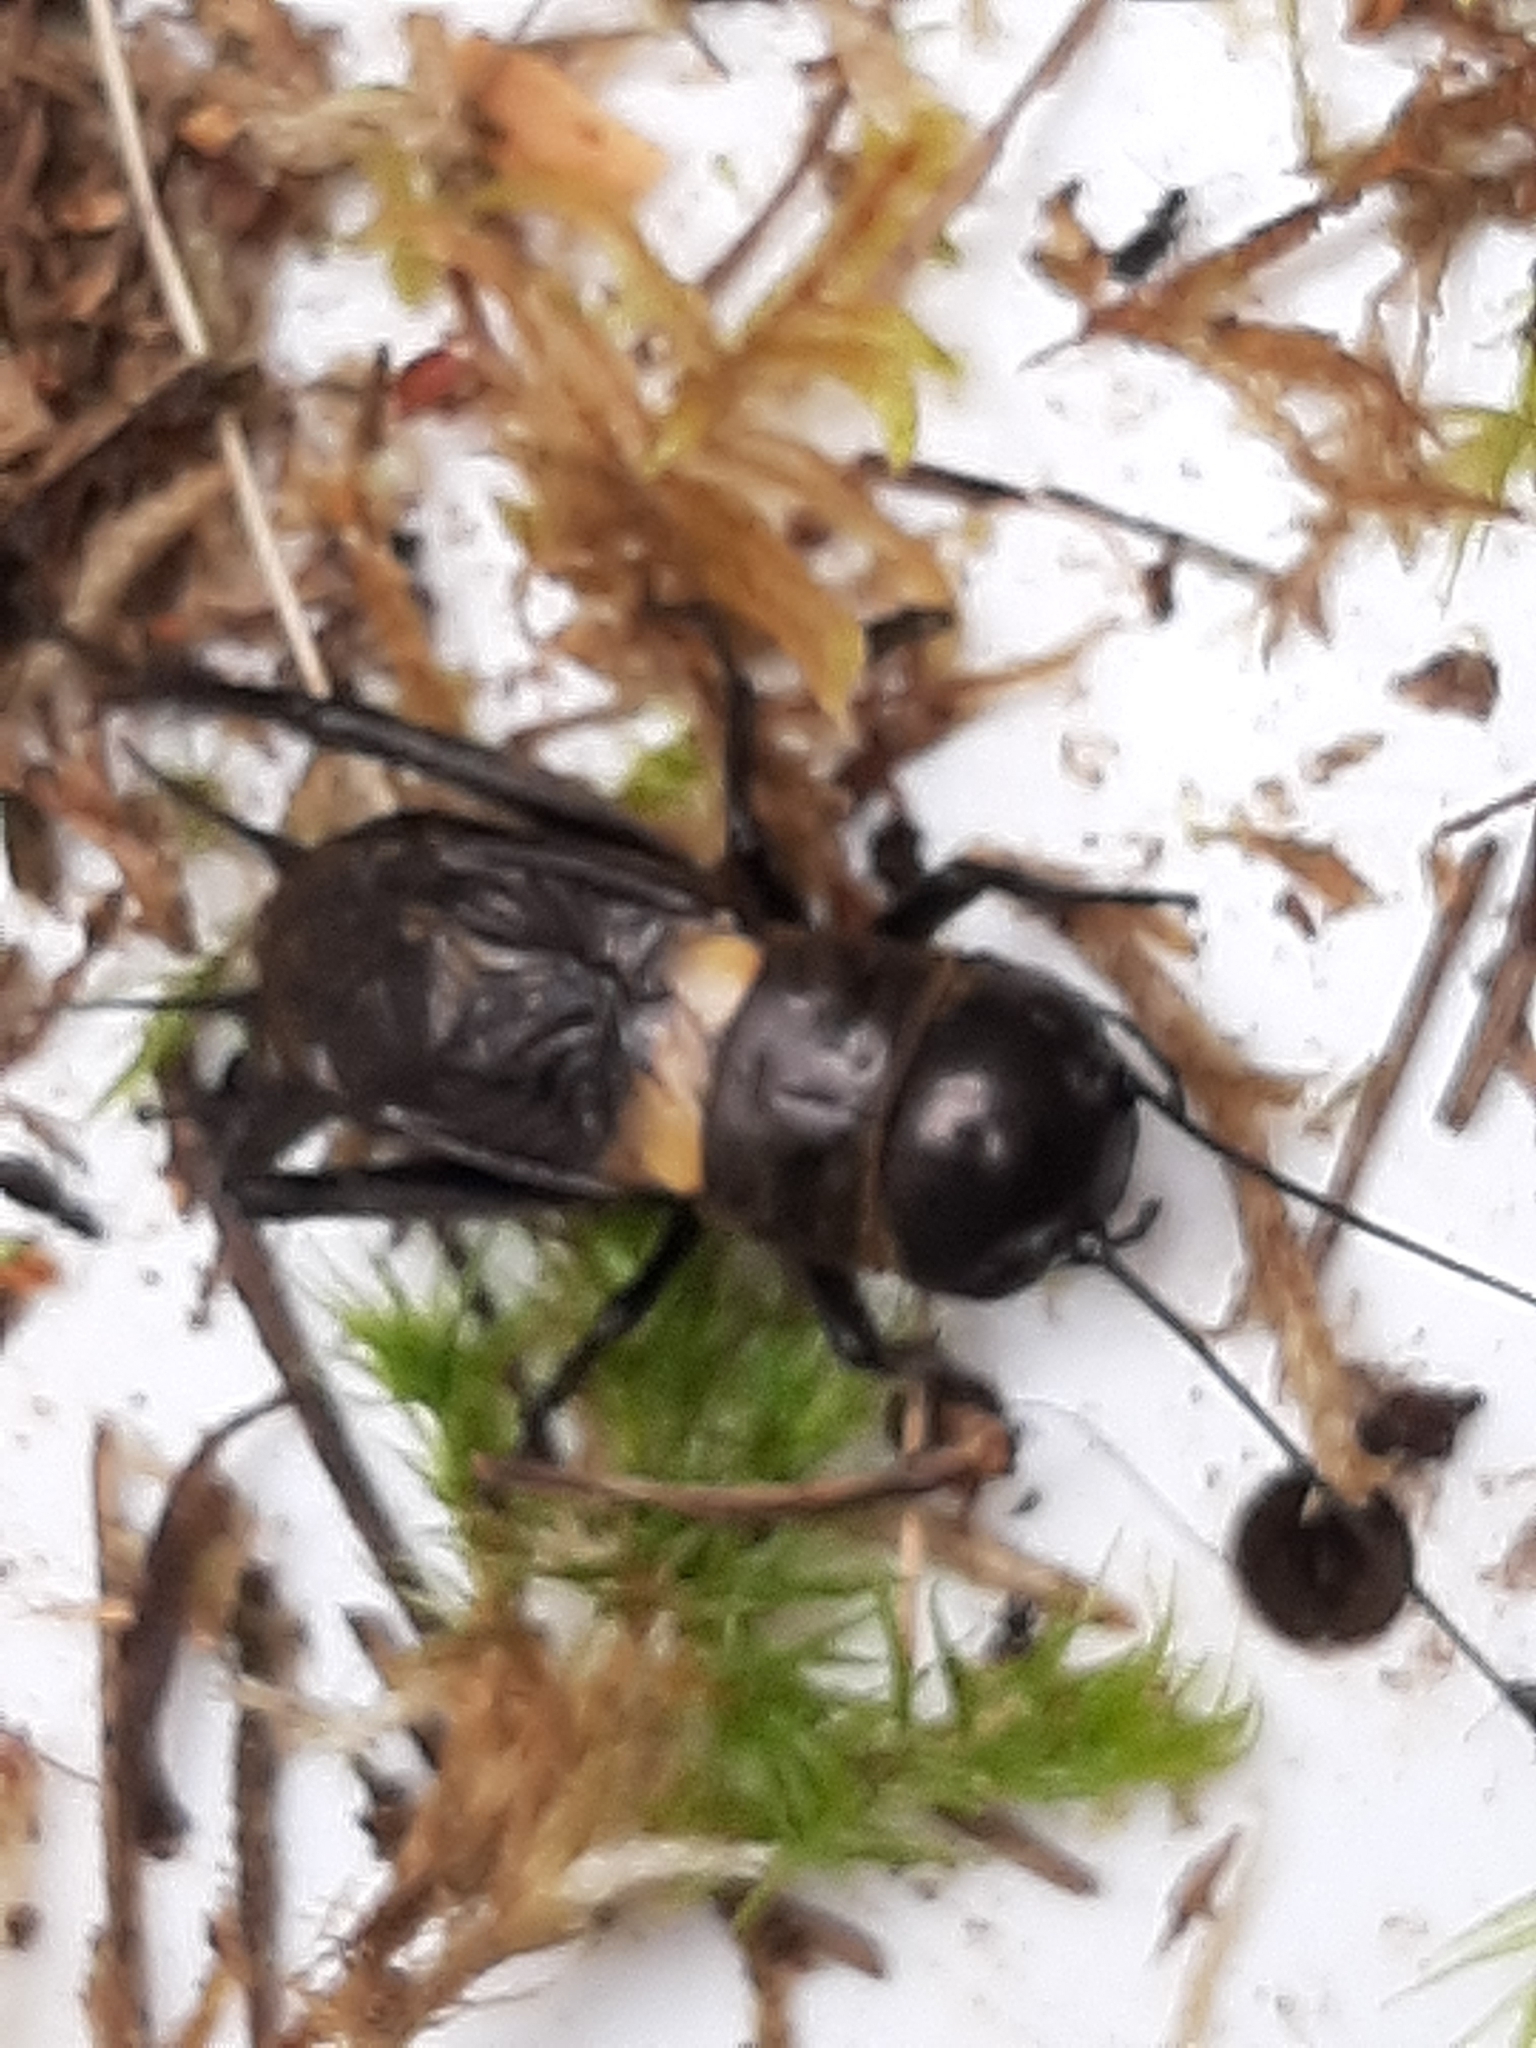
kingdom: Animalia
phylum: Arthropoda
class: Insecta
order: Orthoptera
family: Gryllidae
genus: Gryllus
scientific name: Gryllus campestris
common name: Field cricket
